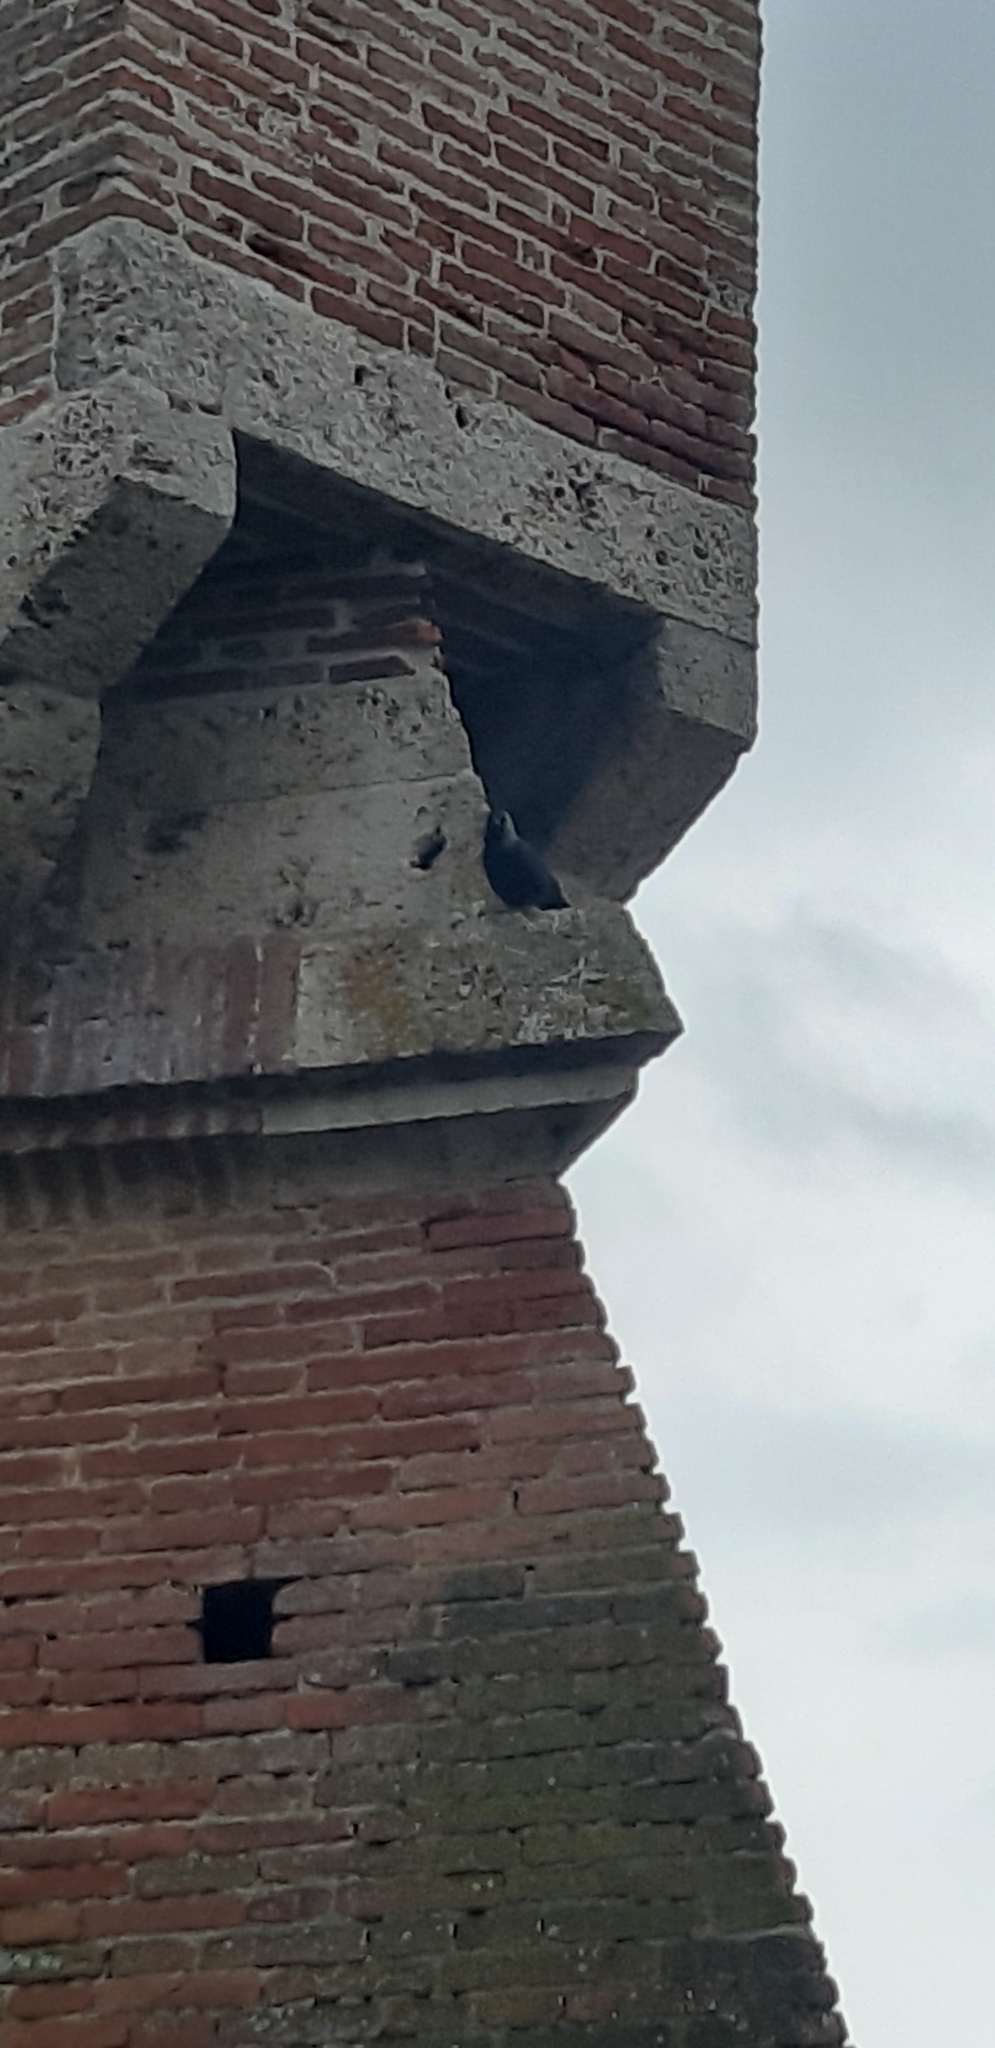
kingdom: Animalia
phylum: Chordata
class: Aves
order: Passeriformes
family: Corvidae
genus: Coloeus
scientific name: Coloeus monedula
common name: Western jackdaw
